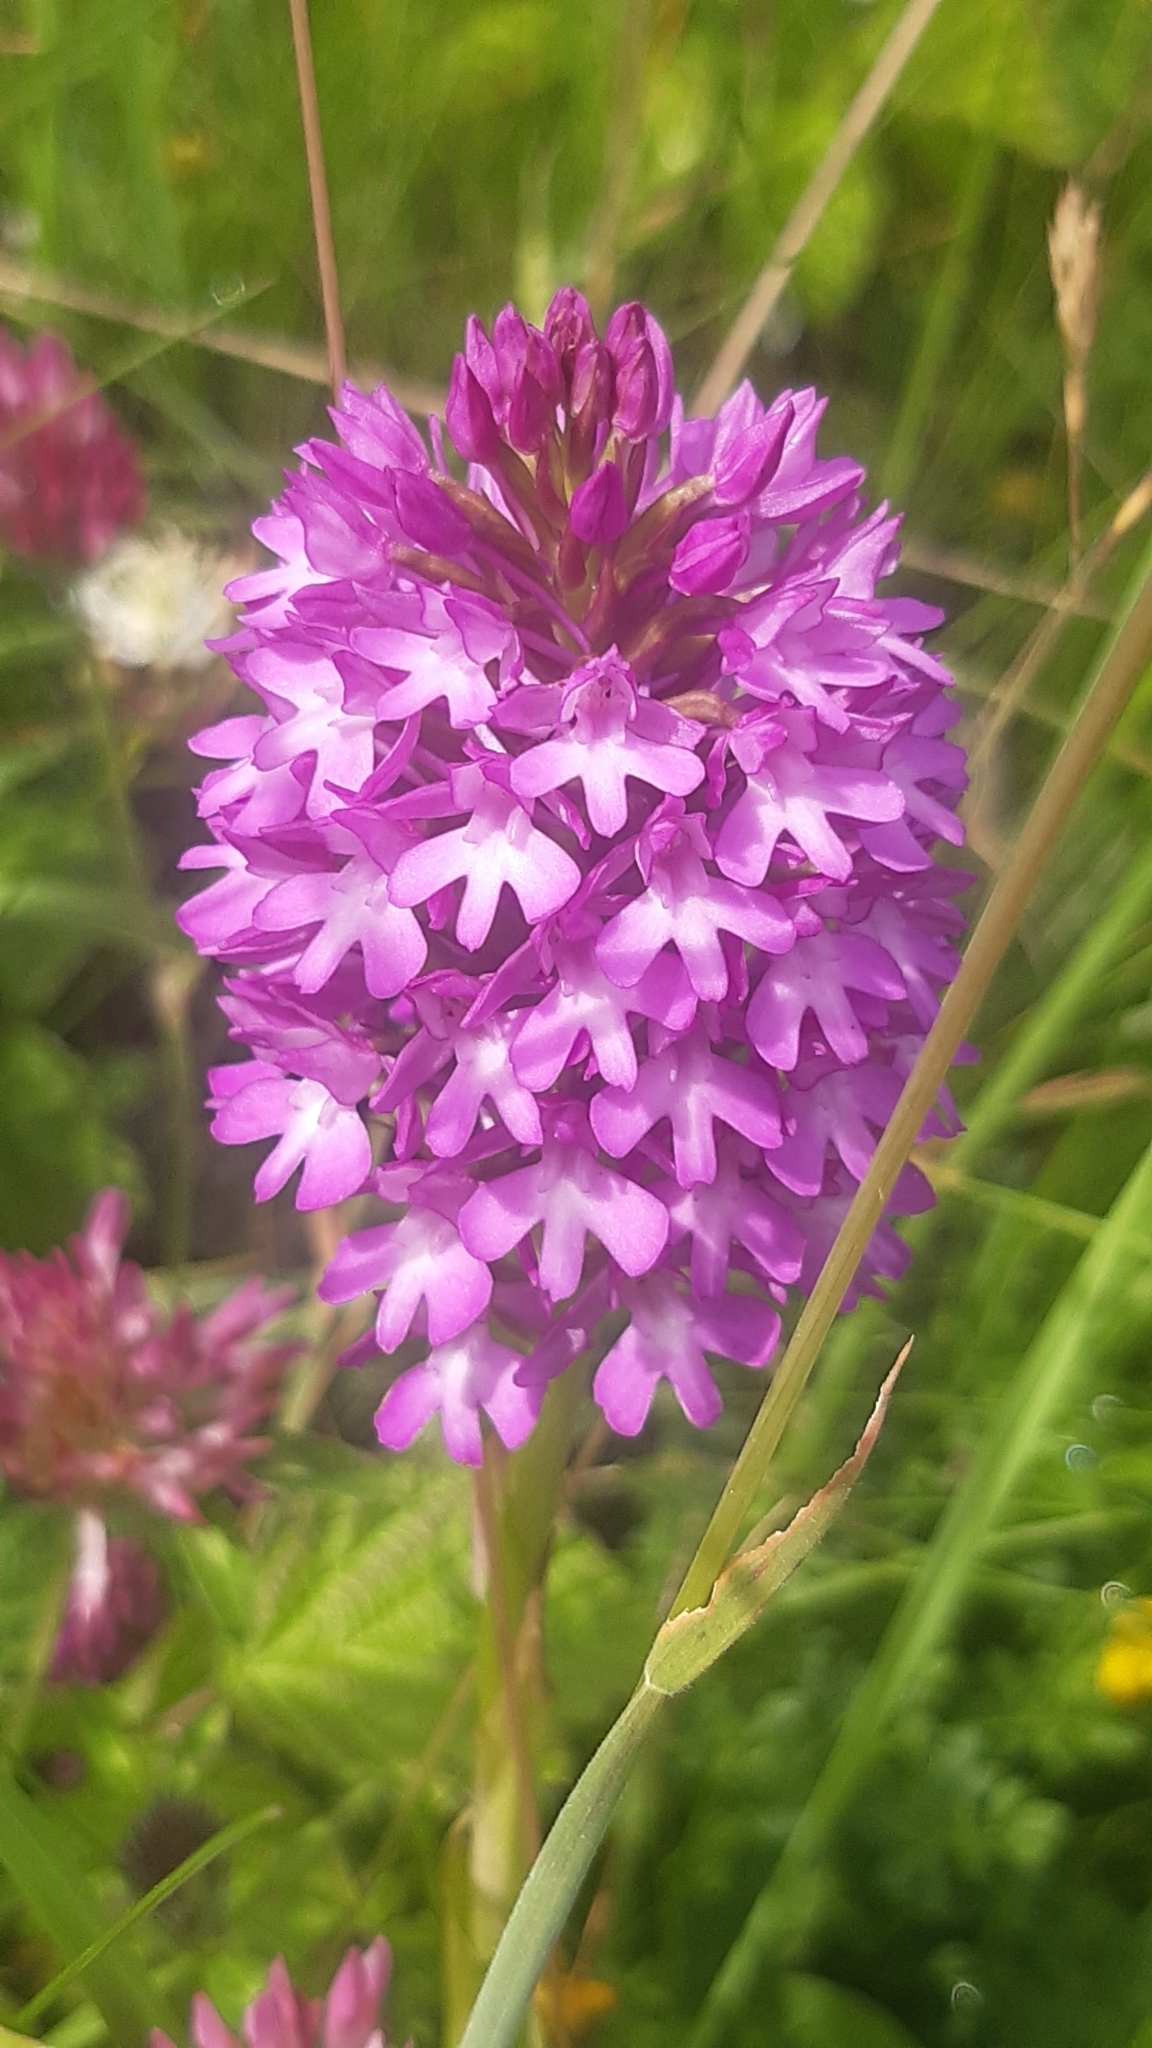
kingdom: Plantae
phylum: Tracheophyta
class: Liliopsida
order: Asparagales
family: Orchidaceae
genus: Anacamptis
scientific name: Anacamptis pyramidalis
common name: Pyramidal orchid
